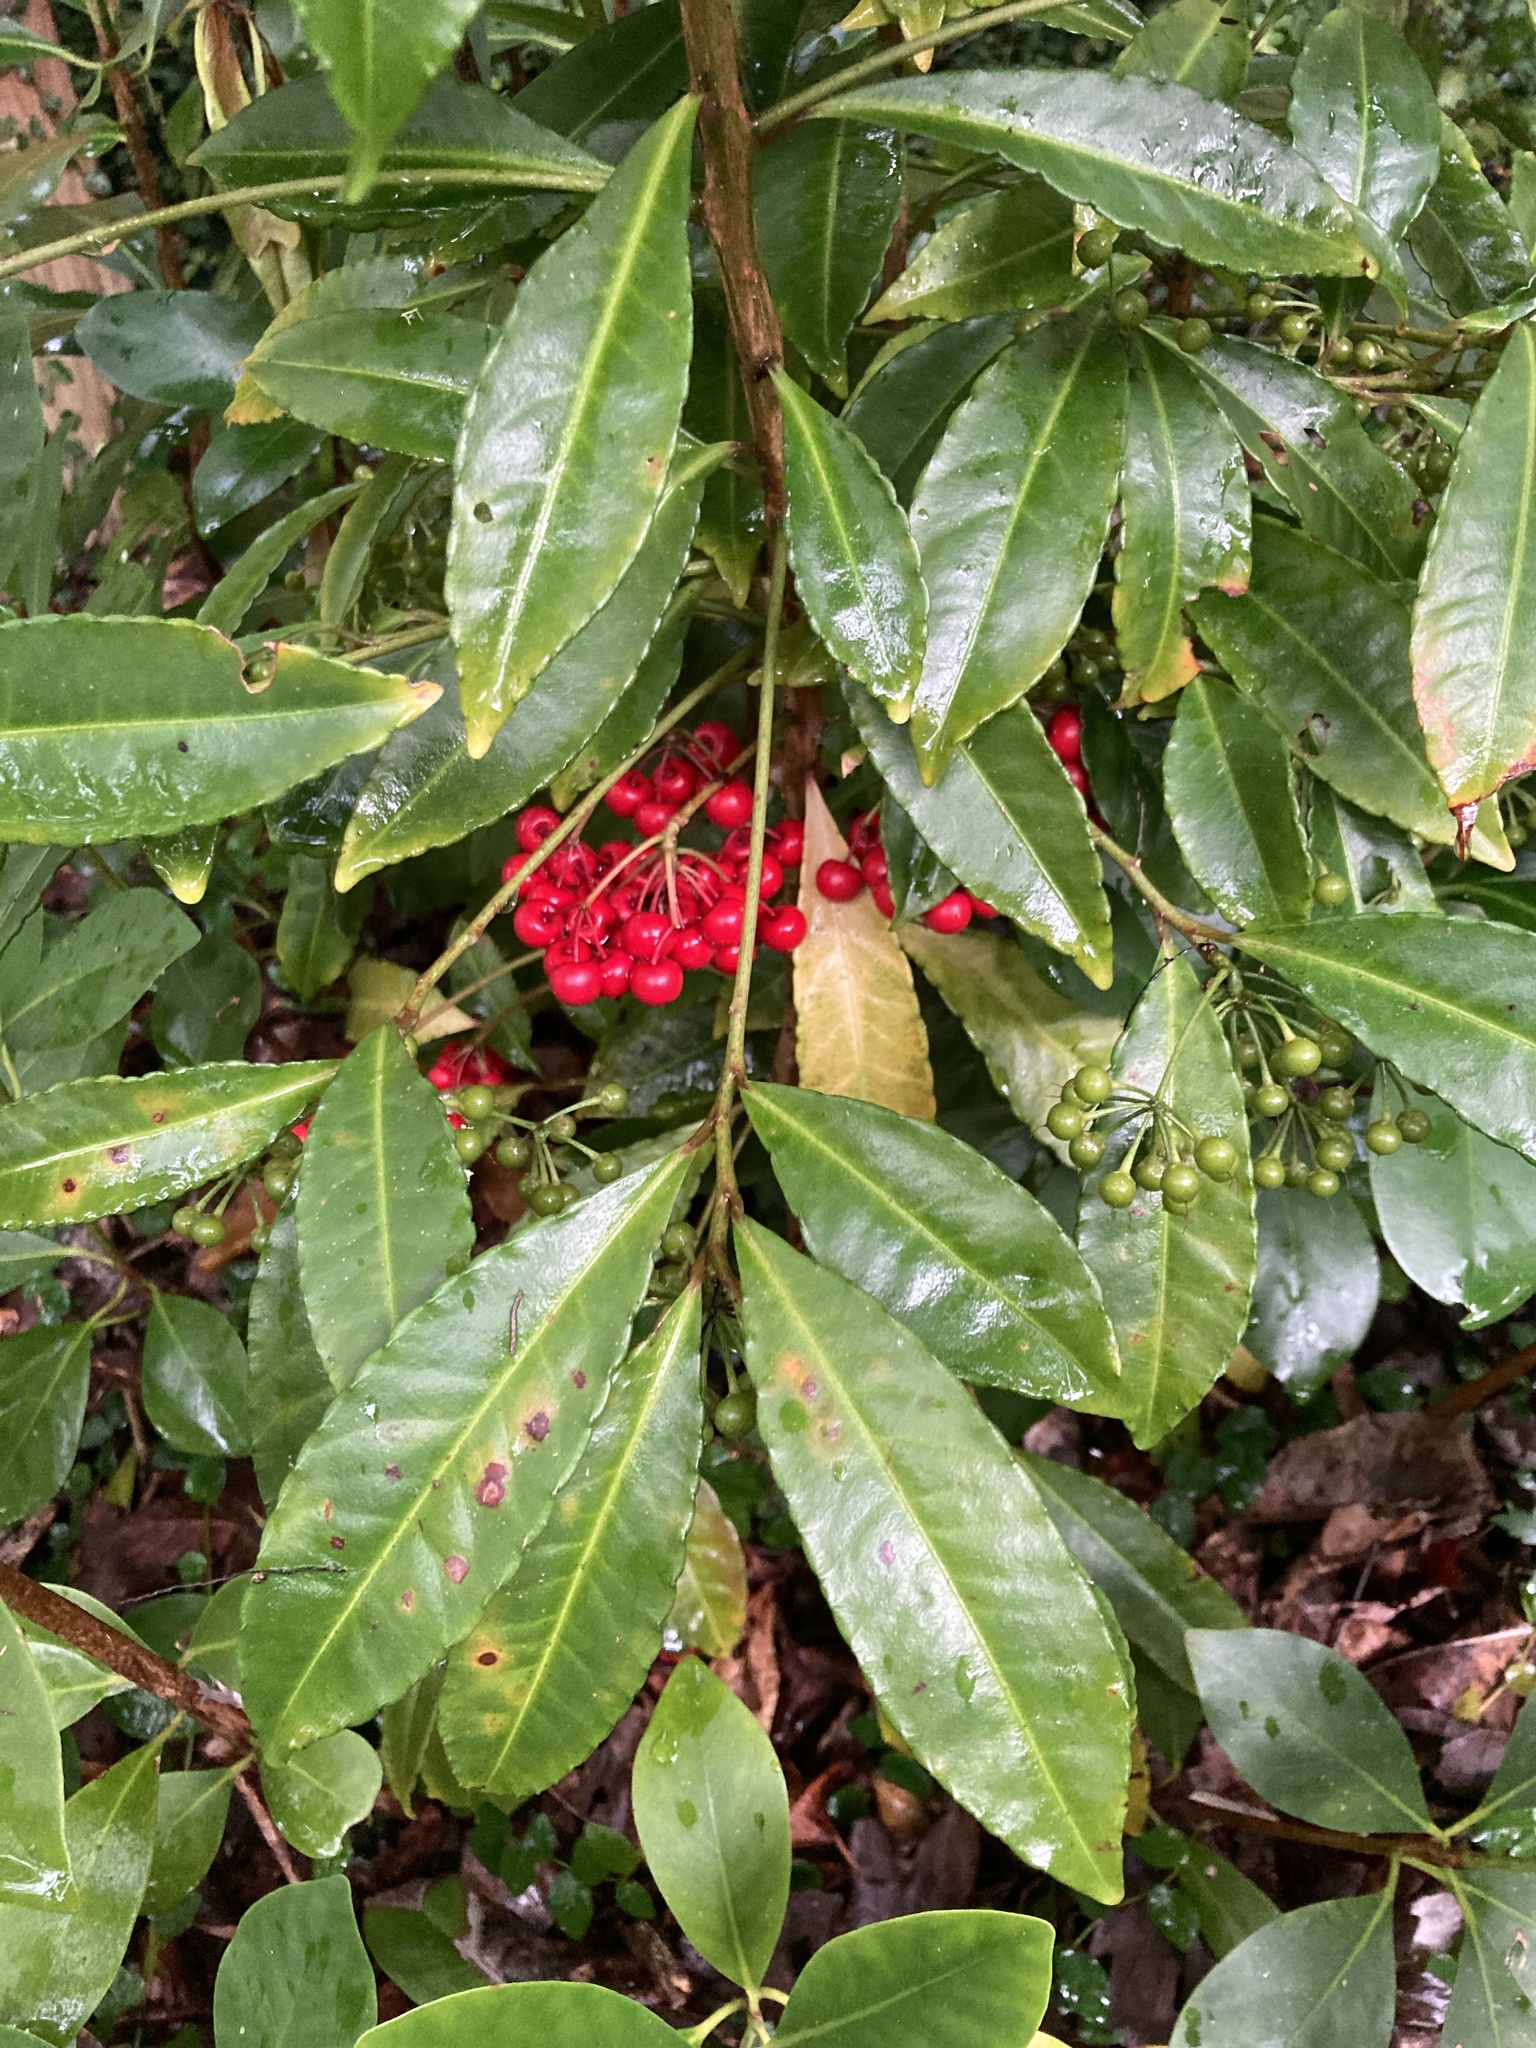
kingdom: Plantae
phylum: Tracheophyta
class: Magnoliopsida
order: Ericales
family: Primulaceae
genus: Ardisia
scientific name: Ardisia crenata
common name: Hen's eyes
